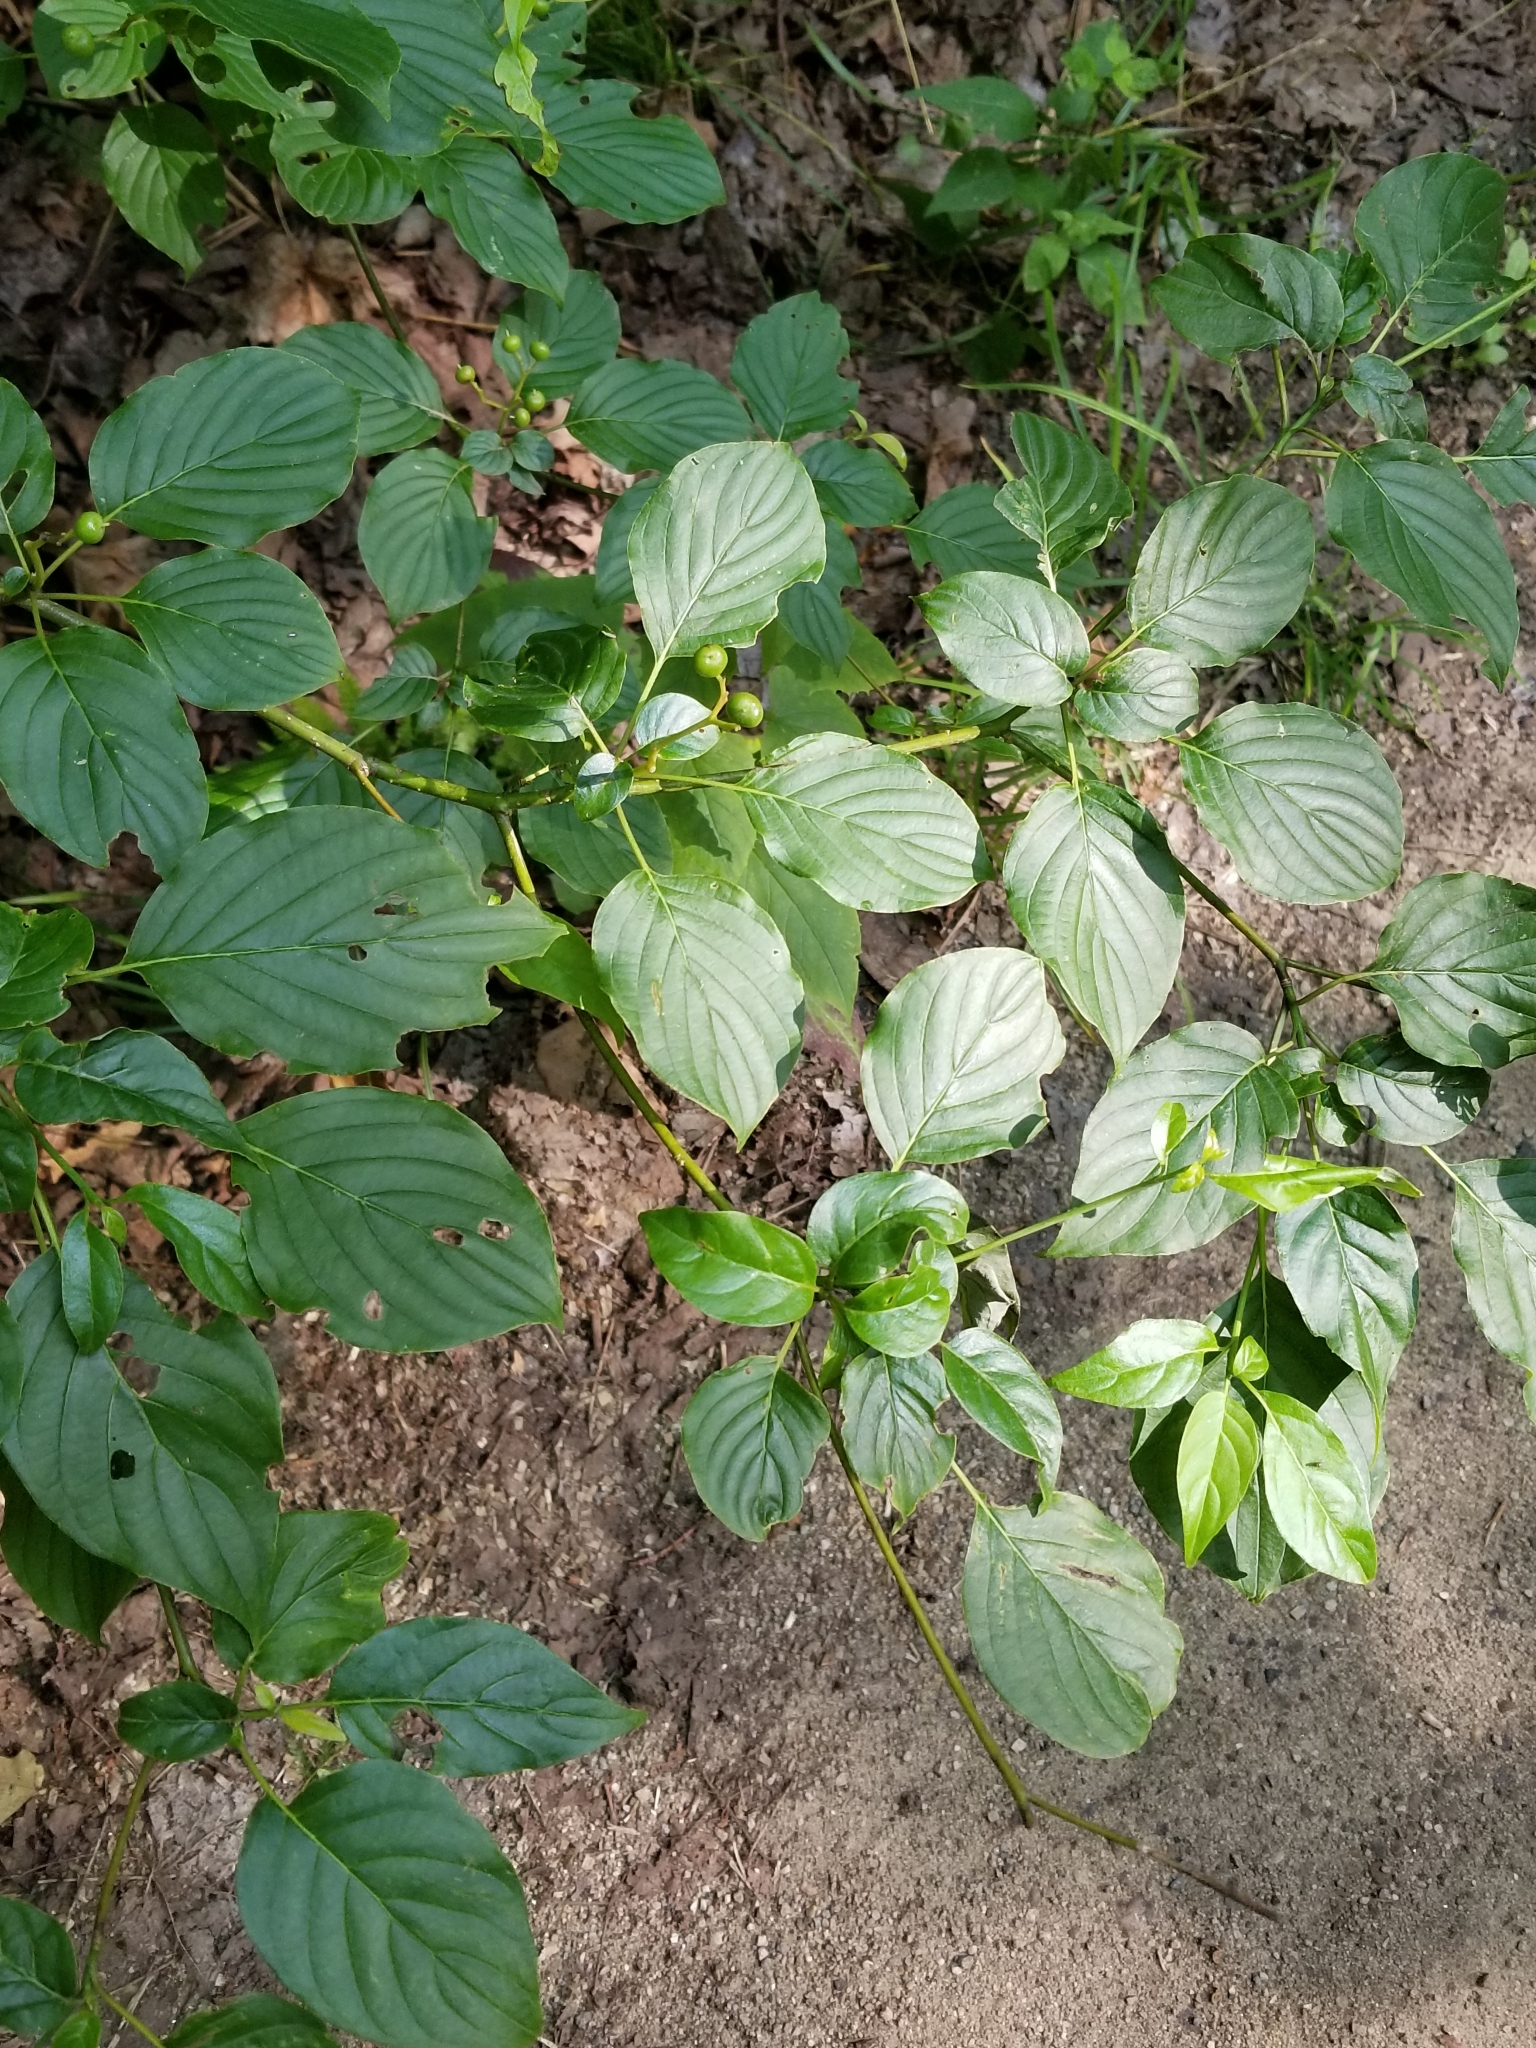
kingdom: Plantae
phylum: Tracheophyta
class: Magnoliopsida
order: Cornales
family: Cornaceae
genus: Cornus
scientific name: Cornus alternifolia
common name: Pagoda dogwood
